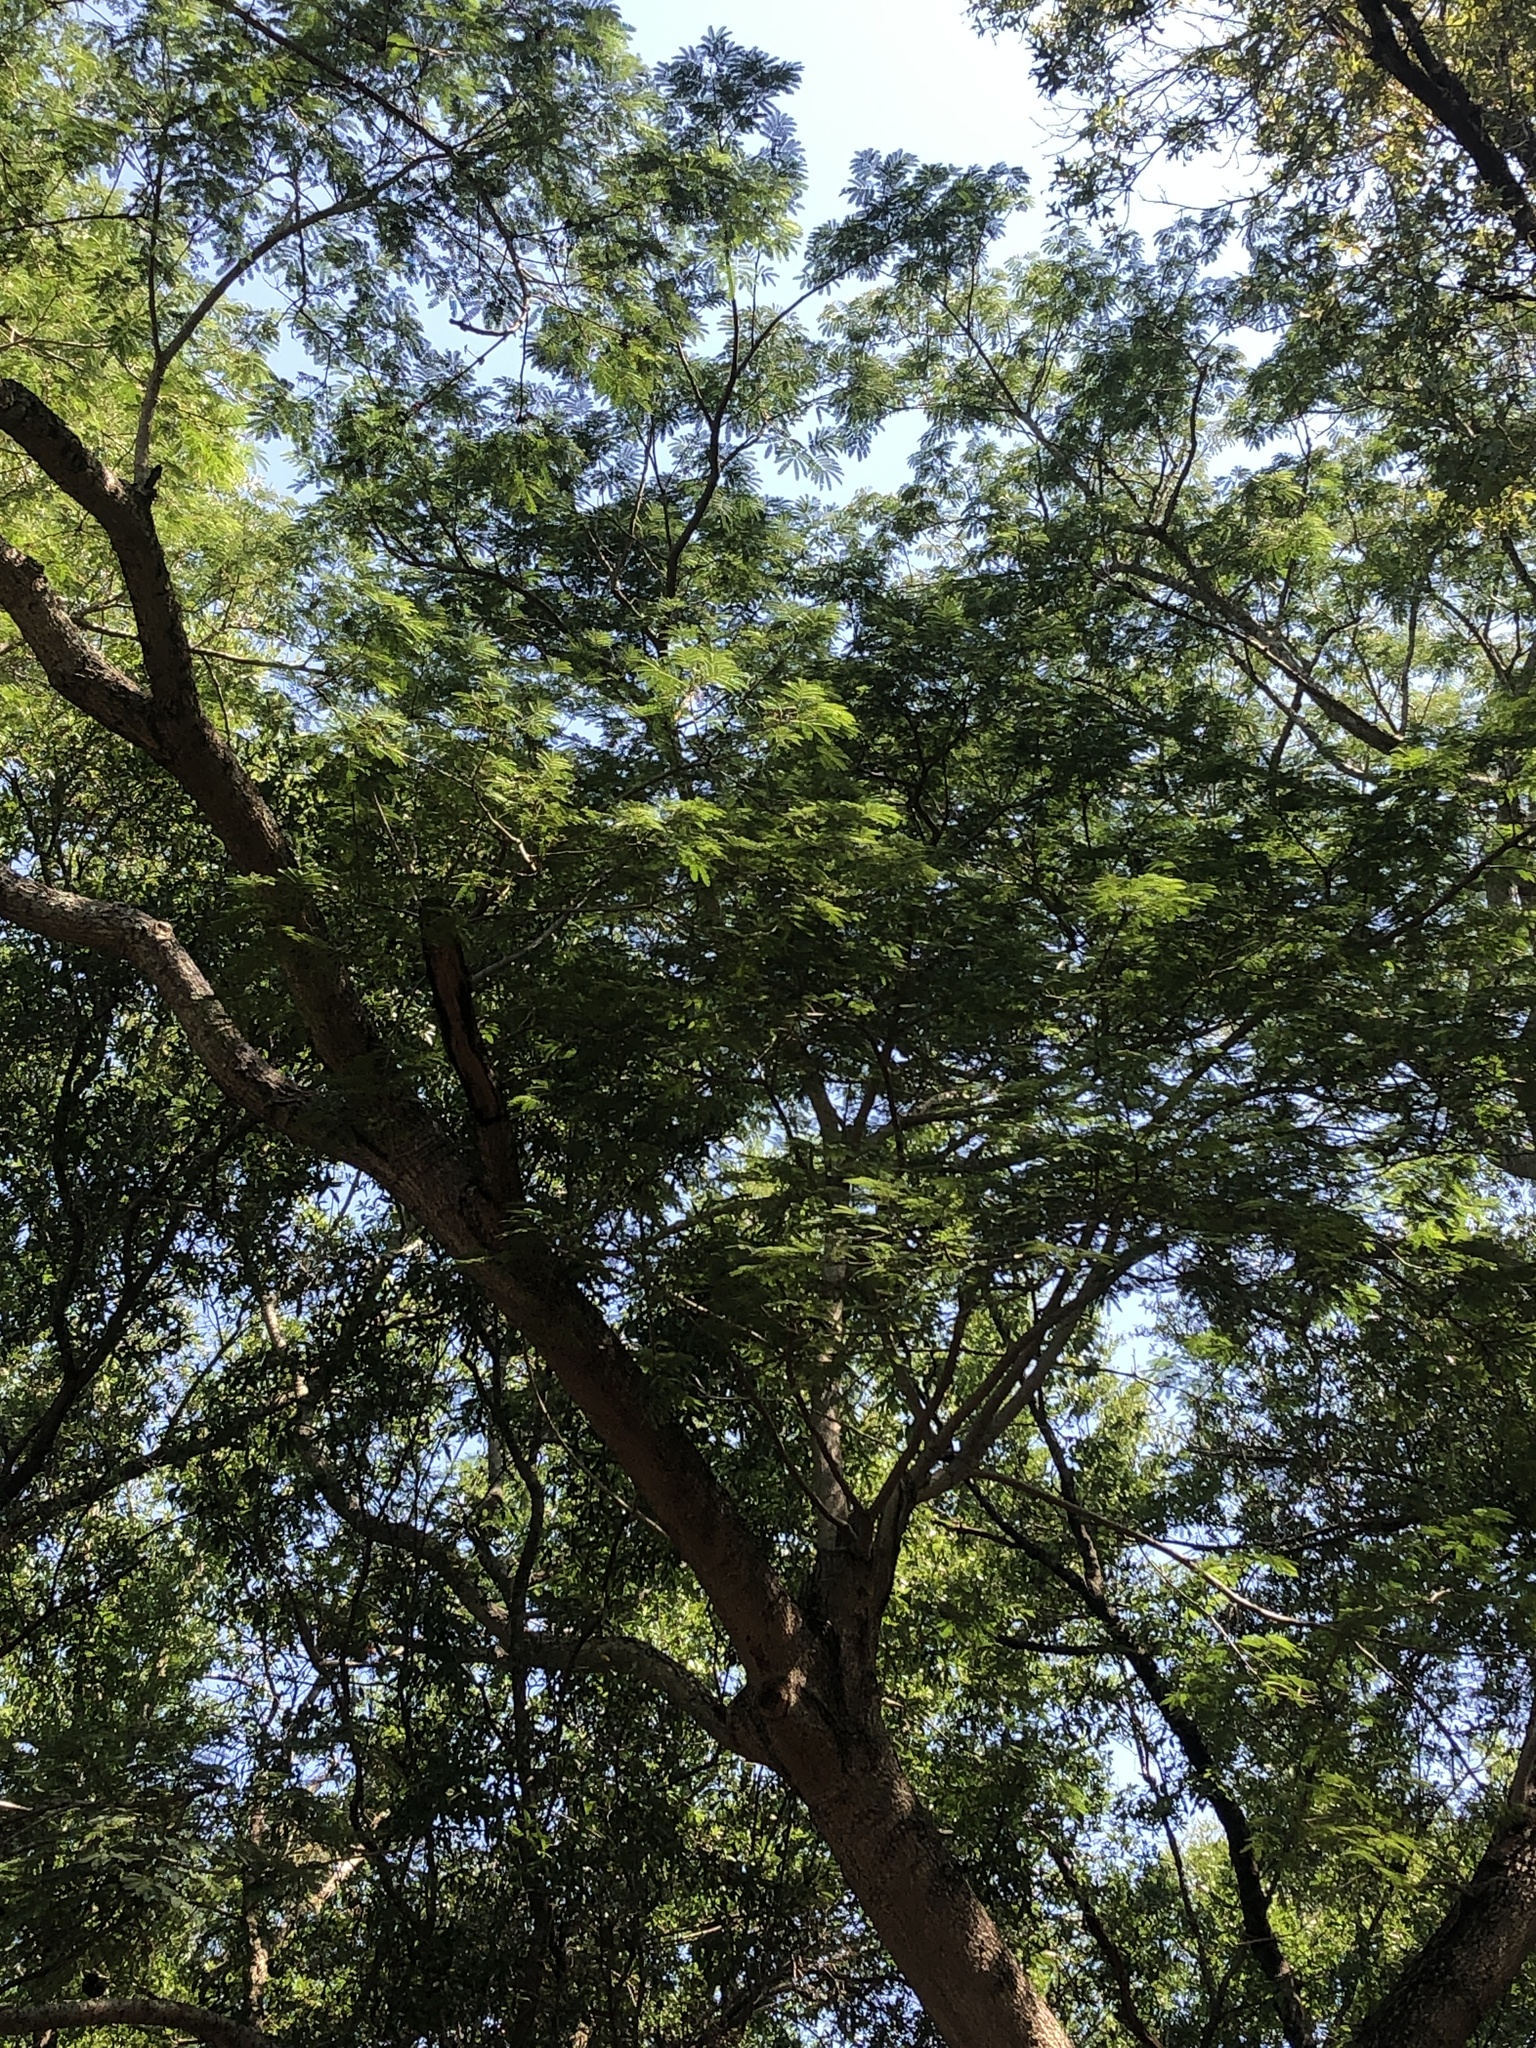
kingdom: Plantae
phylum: Tracheophyta
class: Magnoliopsida
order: Fabales
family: Fabaceae
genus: Enterolobium
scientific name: Enterolobium contortisiliquum
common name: Pacara earpod tree
